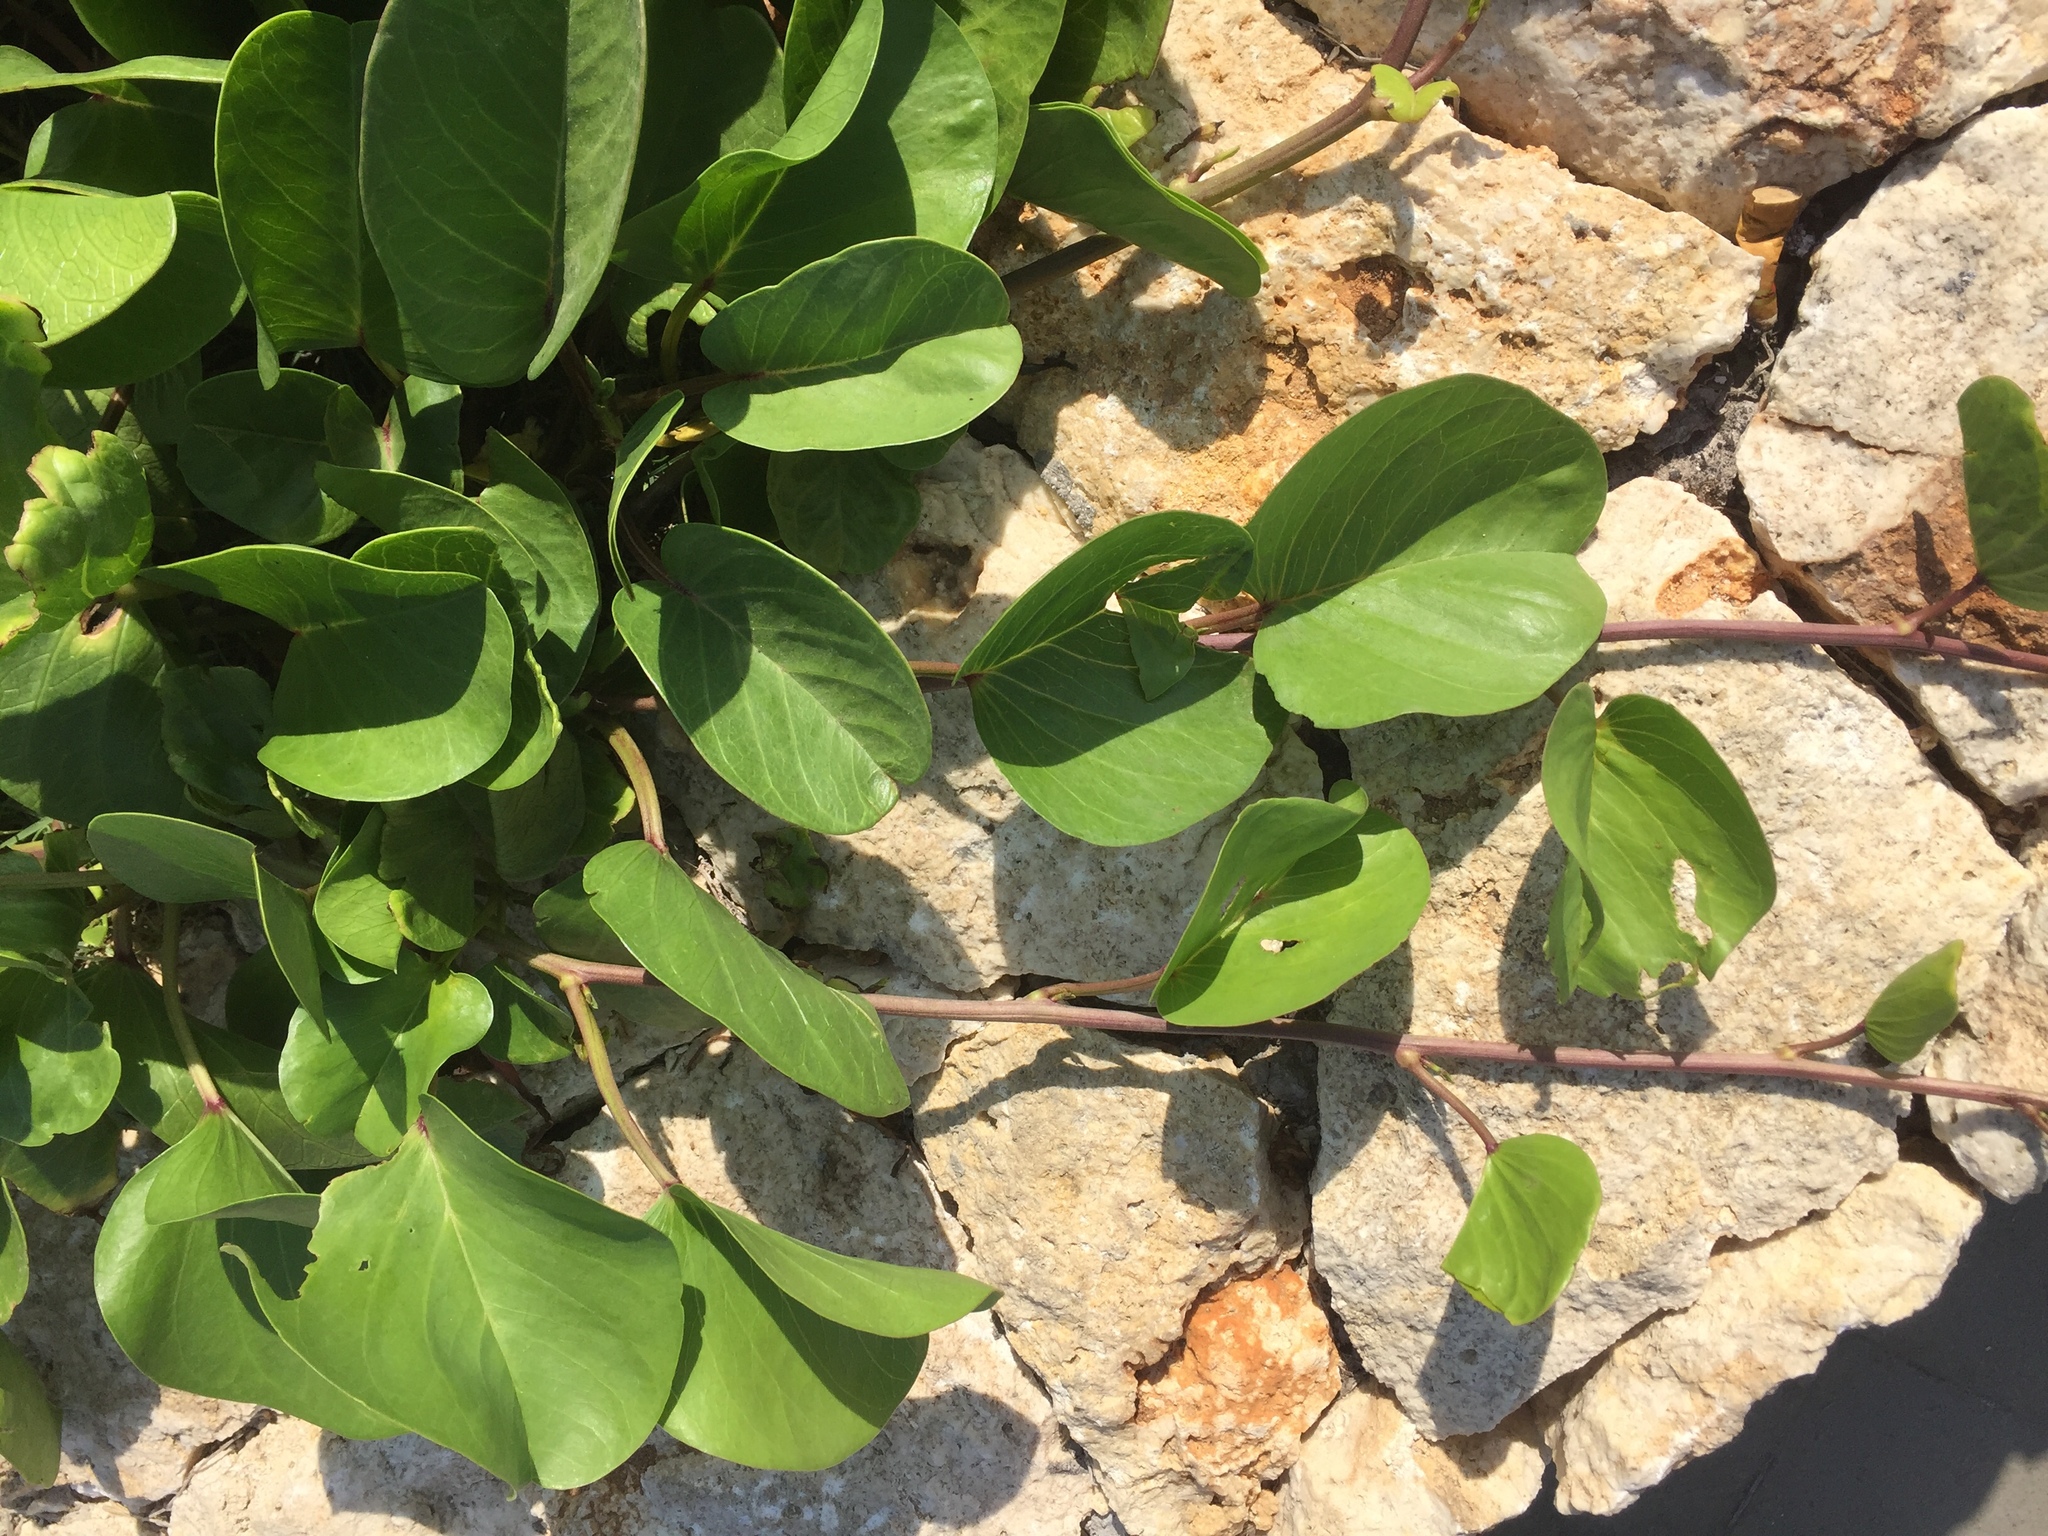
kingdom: Plantae
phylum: Tracheophyta
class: Magnoliopsida
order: Solanales
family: Convolvulaceae
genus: Ipomoea
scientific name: Ipomoea pes-caprae
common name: Beach morning glory
